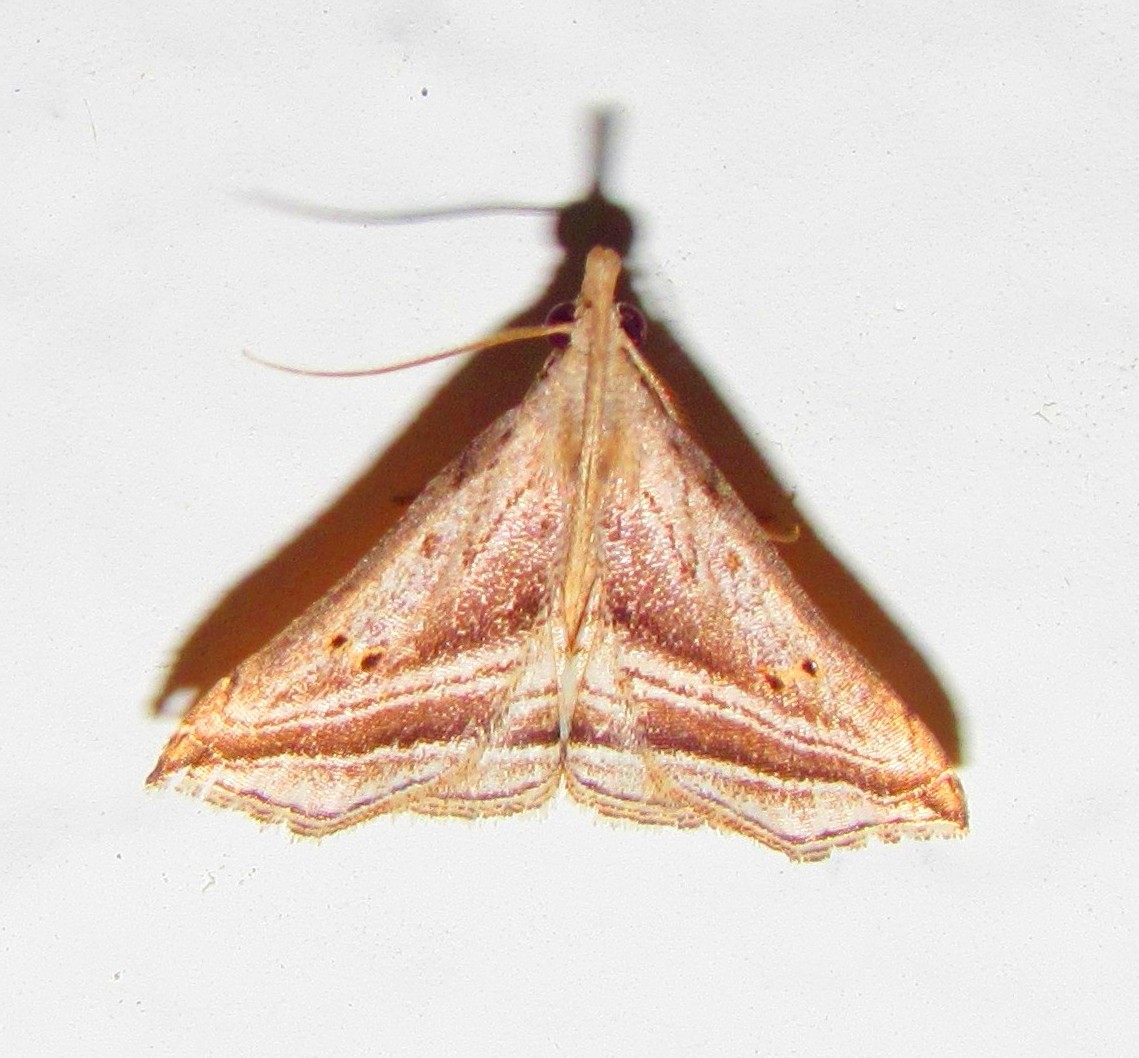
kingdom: Animalia
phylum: Arthropoda
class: Insecta
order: Lepidoptera
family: Erebidae
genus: Charmodia
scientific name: Charmodia vectis
